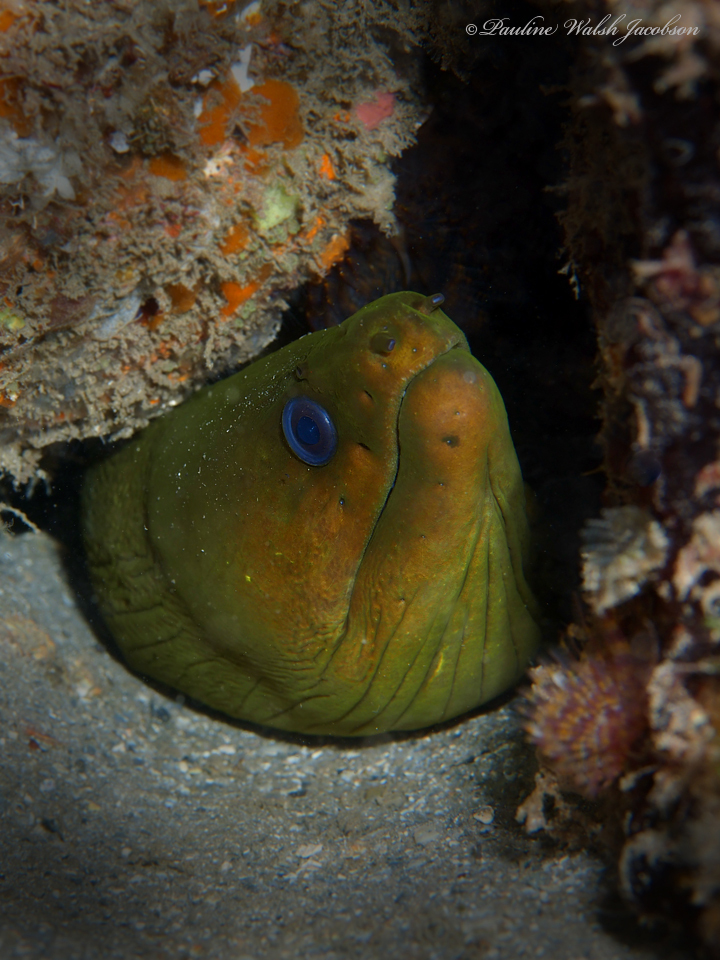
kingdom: Animalia
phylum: Chordata
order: Anguilliformes
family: Muraenidae
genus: Gymnothorax
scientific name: Gymnothorax funebris
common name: Green moray
